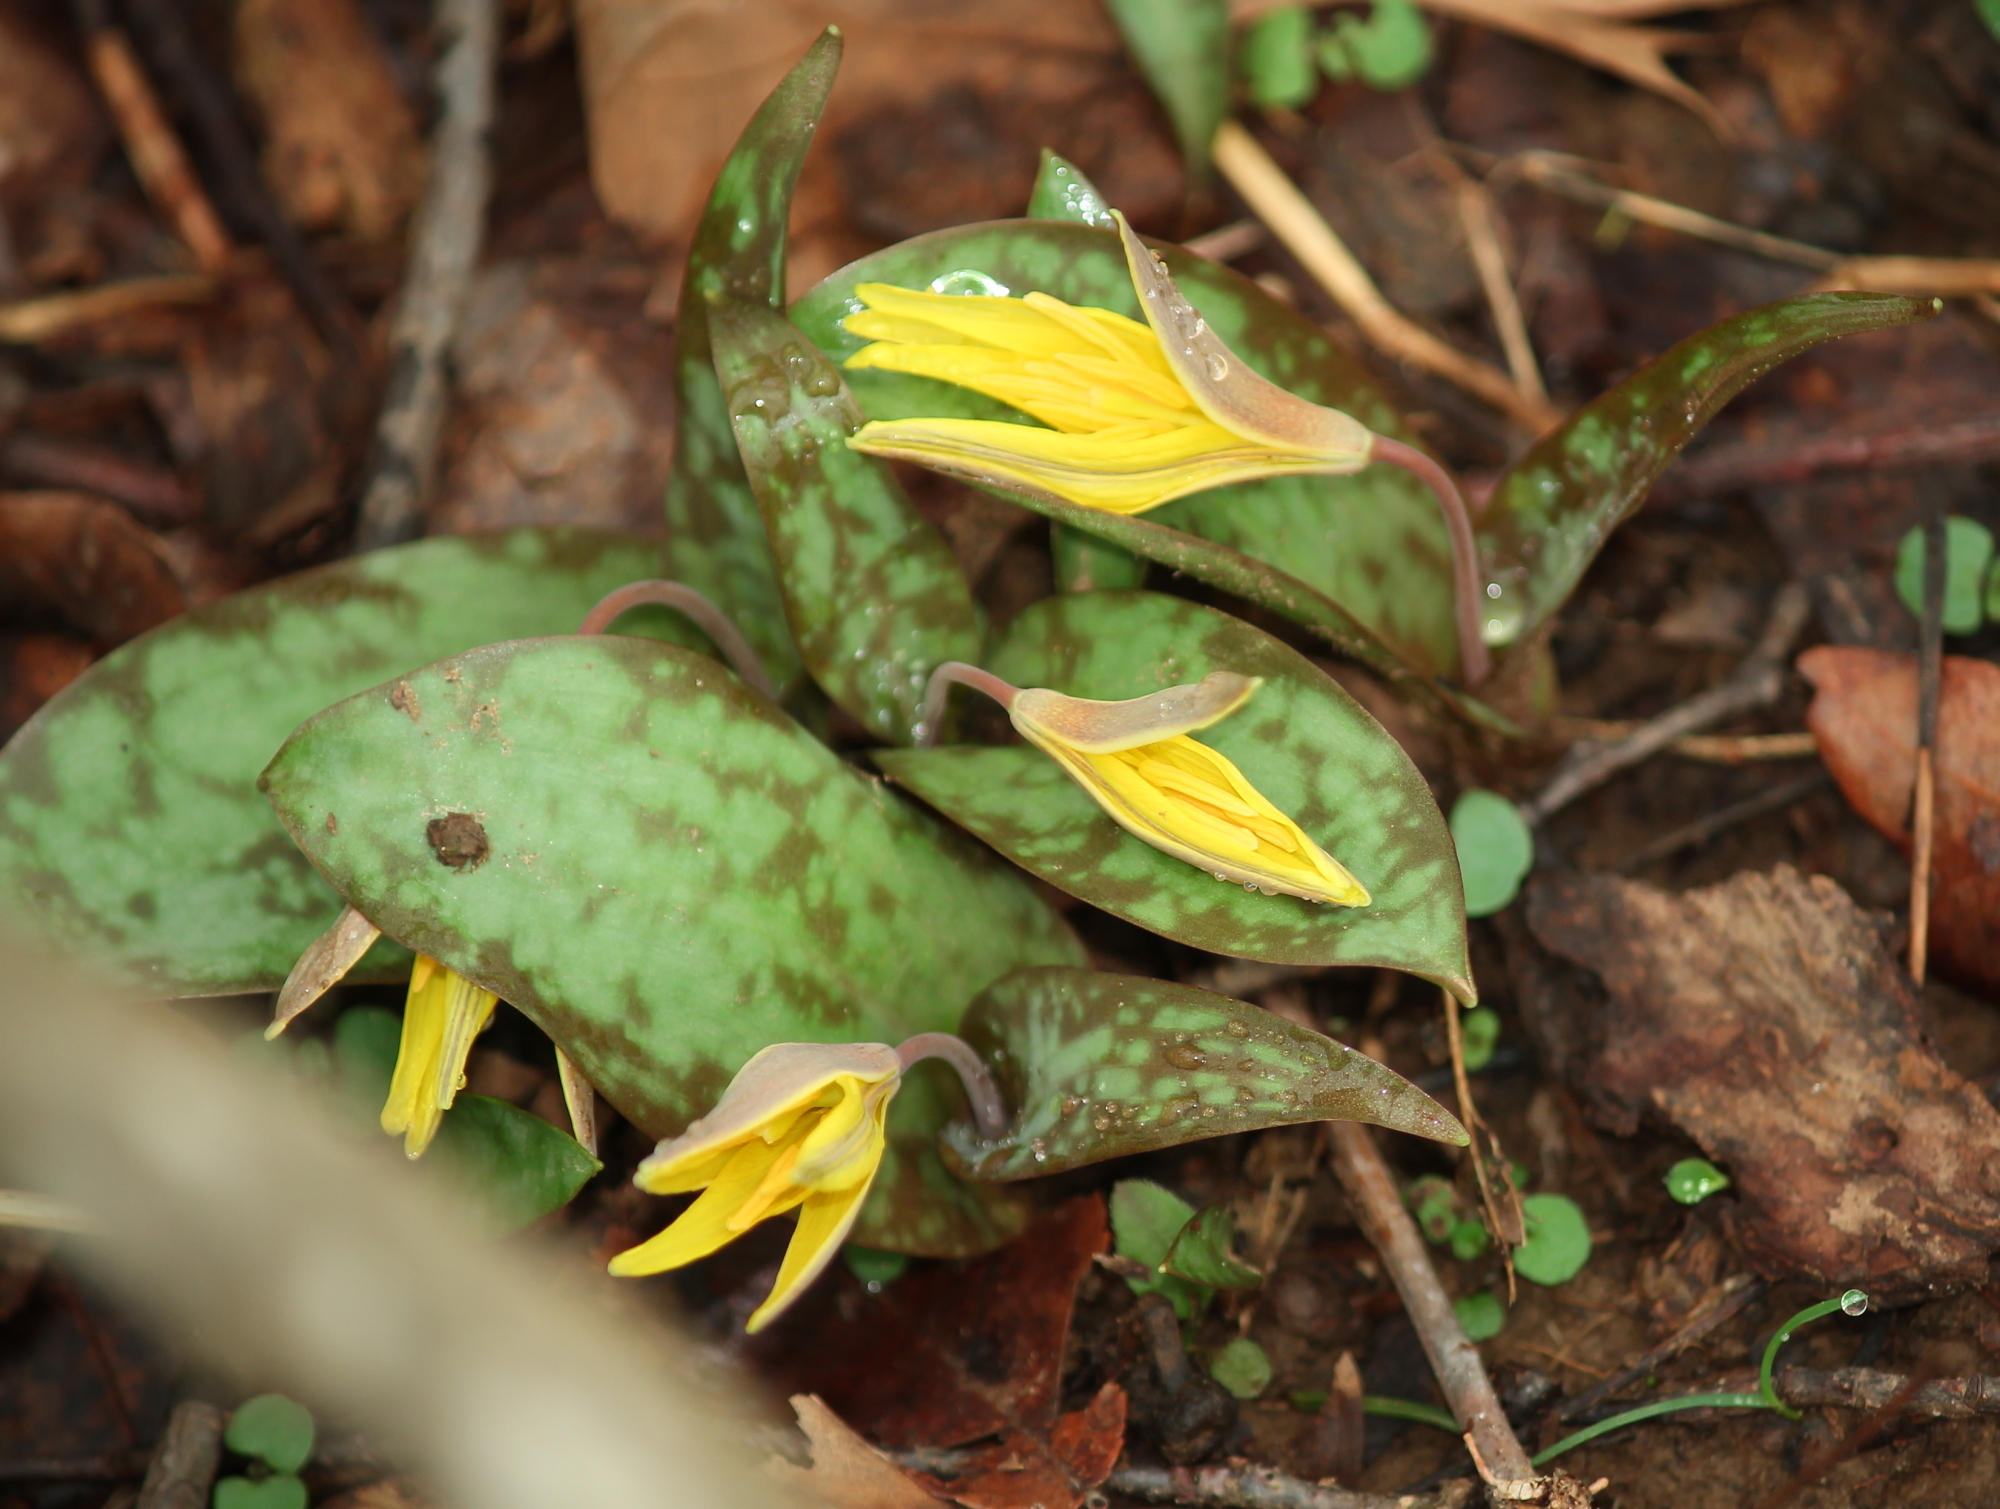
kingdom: Plantae
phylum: Tracheophyta
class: Liliopsida
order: Liliales
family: Liliaceae
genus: Erythronium
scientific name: Erythronium rostratum
